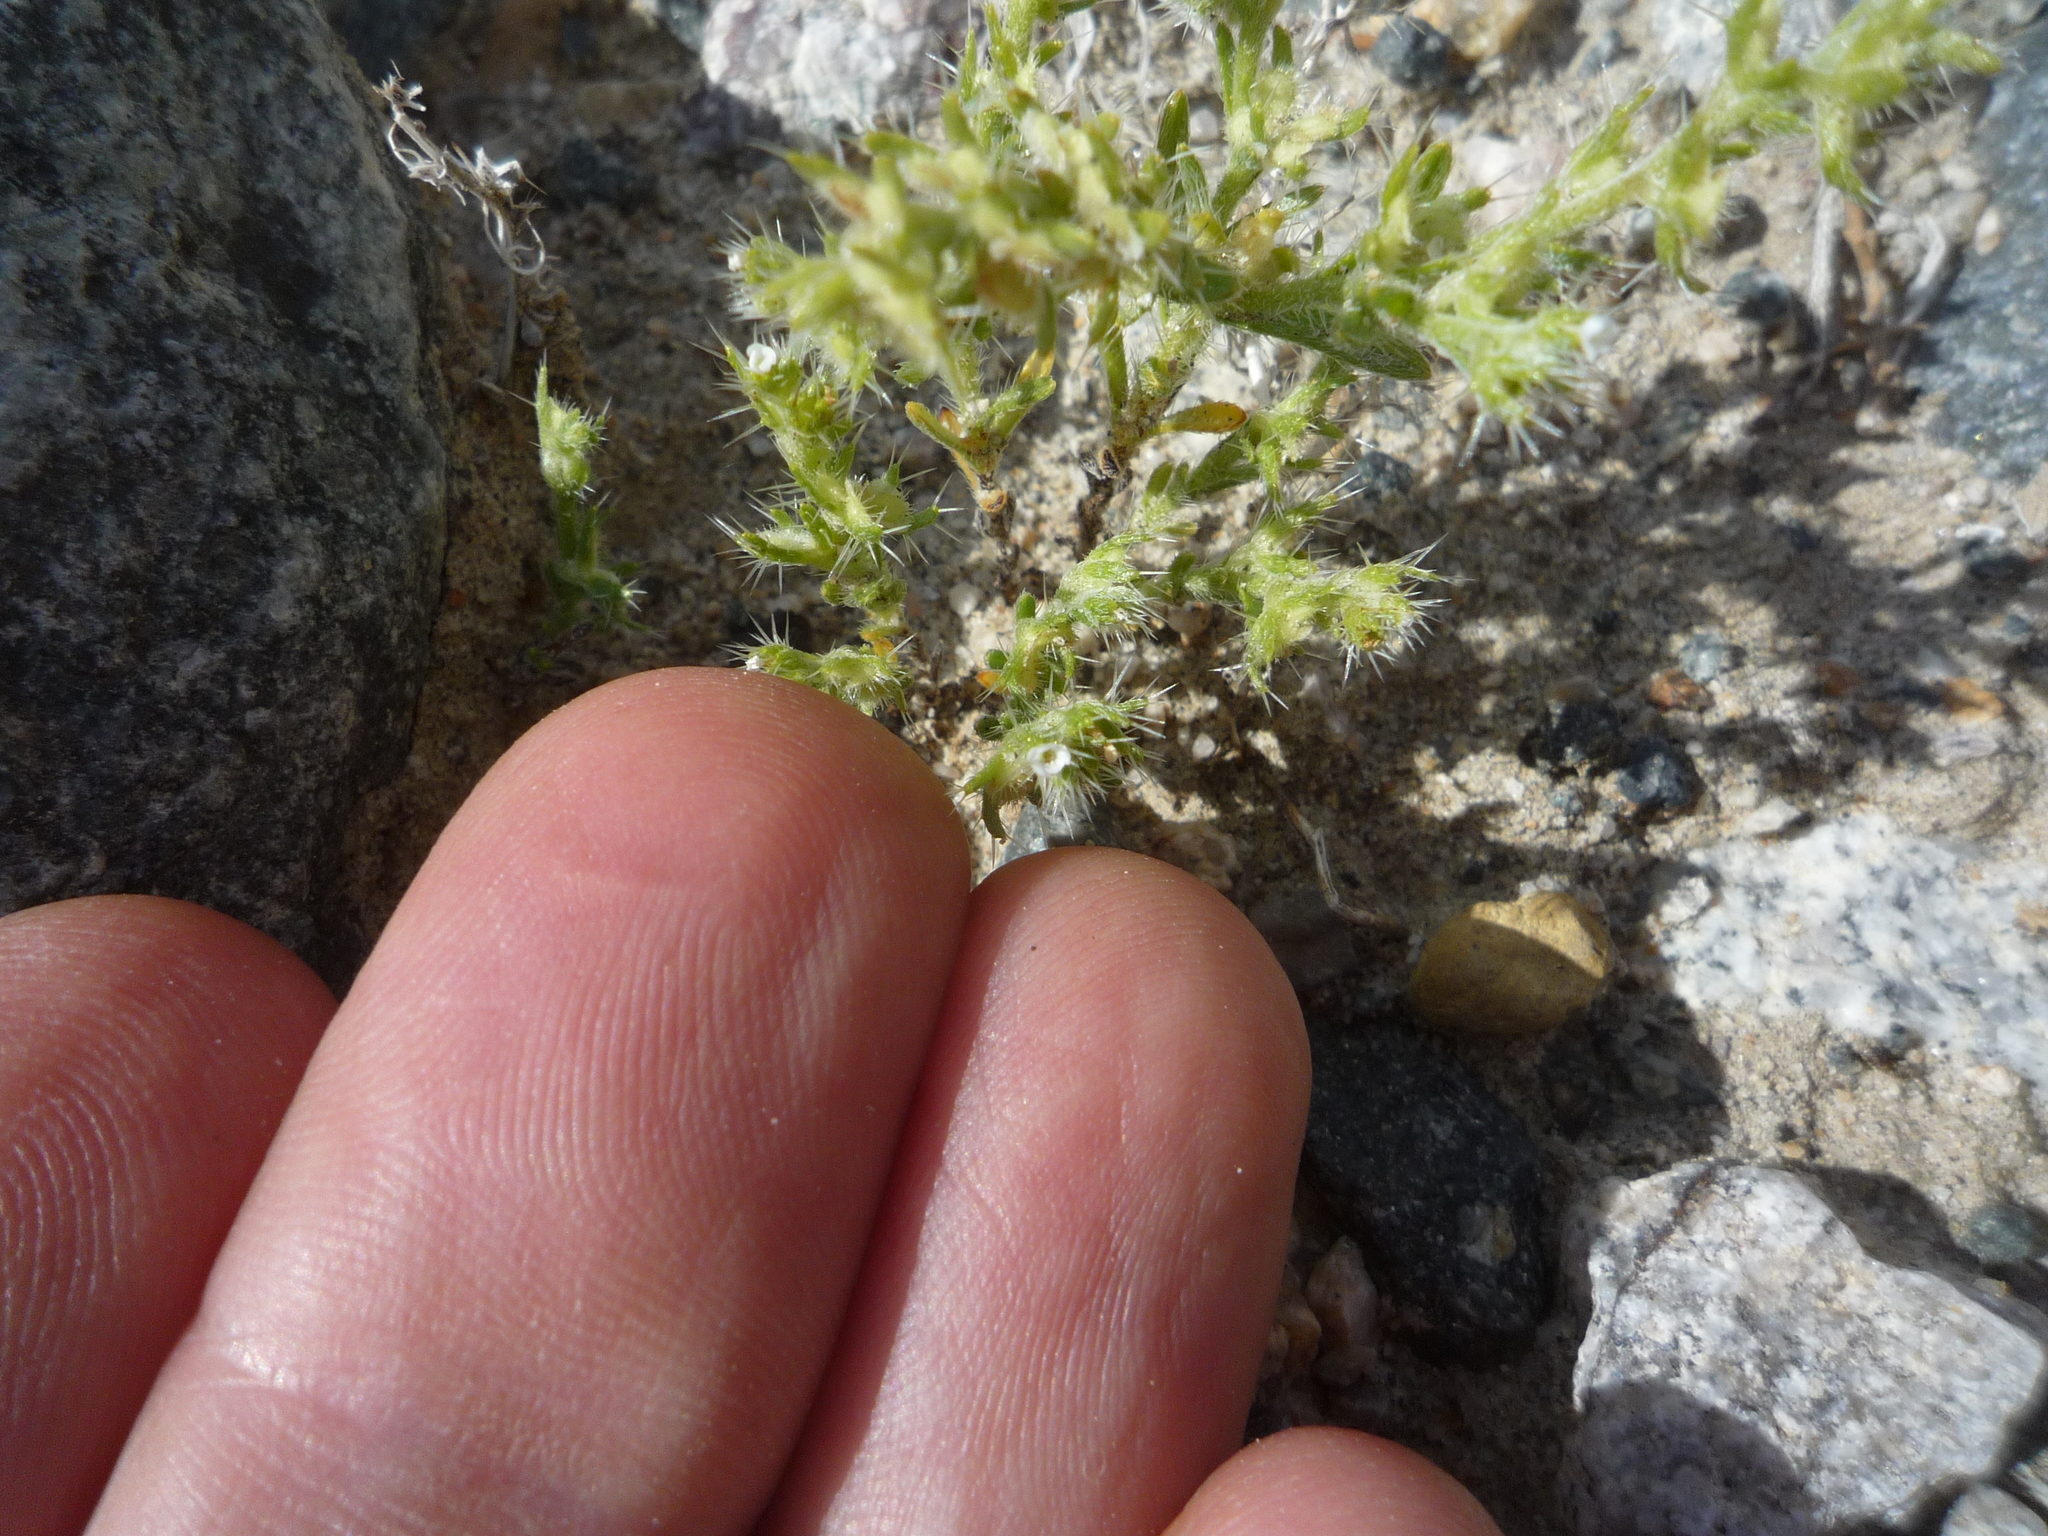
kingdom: Plantae
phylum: Tracheophyta
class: Magnoliopsida
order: Boraginales
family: Boraginaceae
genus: Pectocarya
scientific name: Pectocarya setosa
